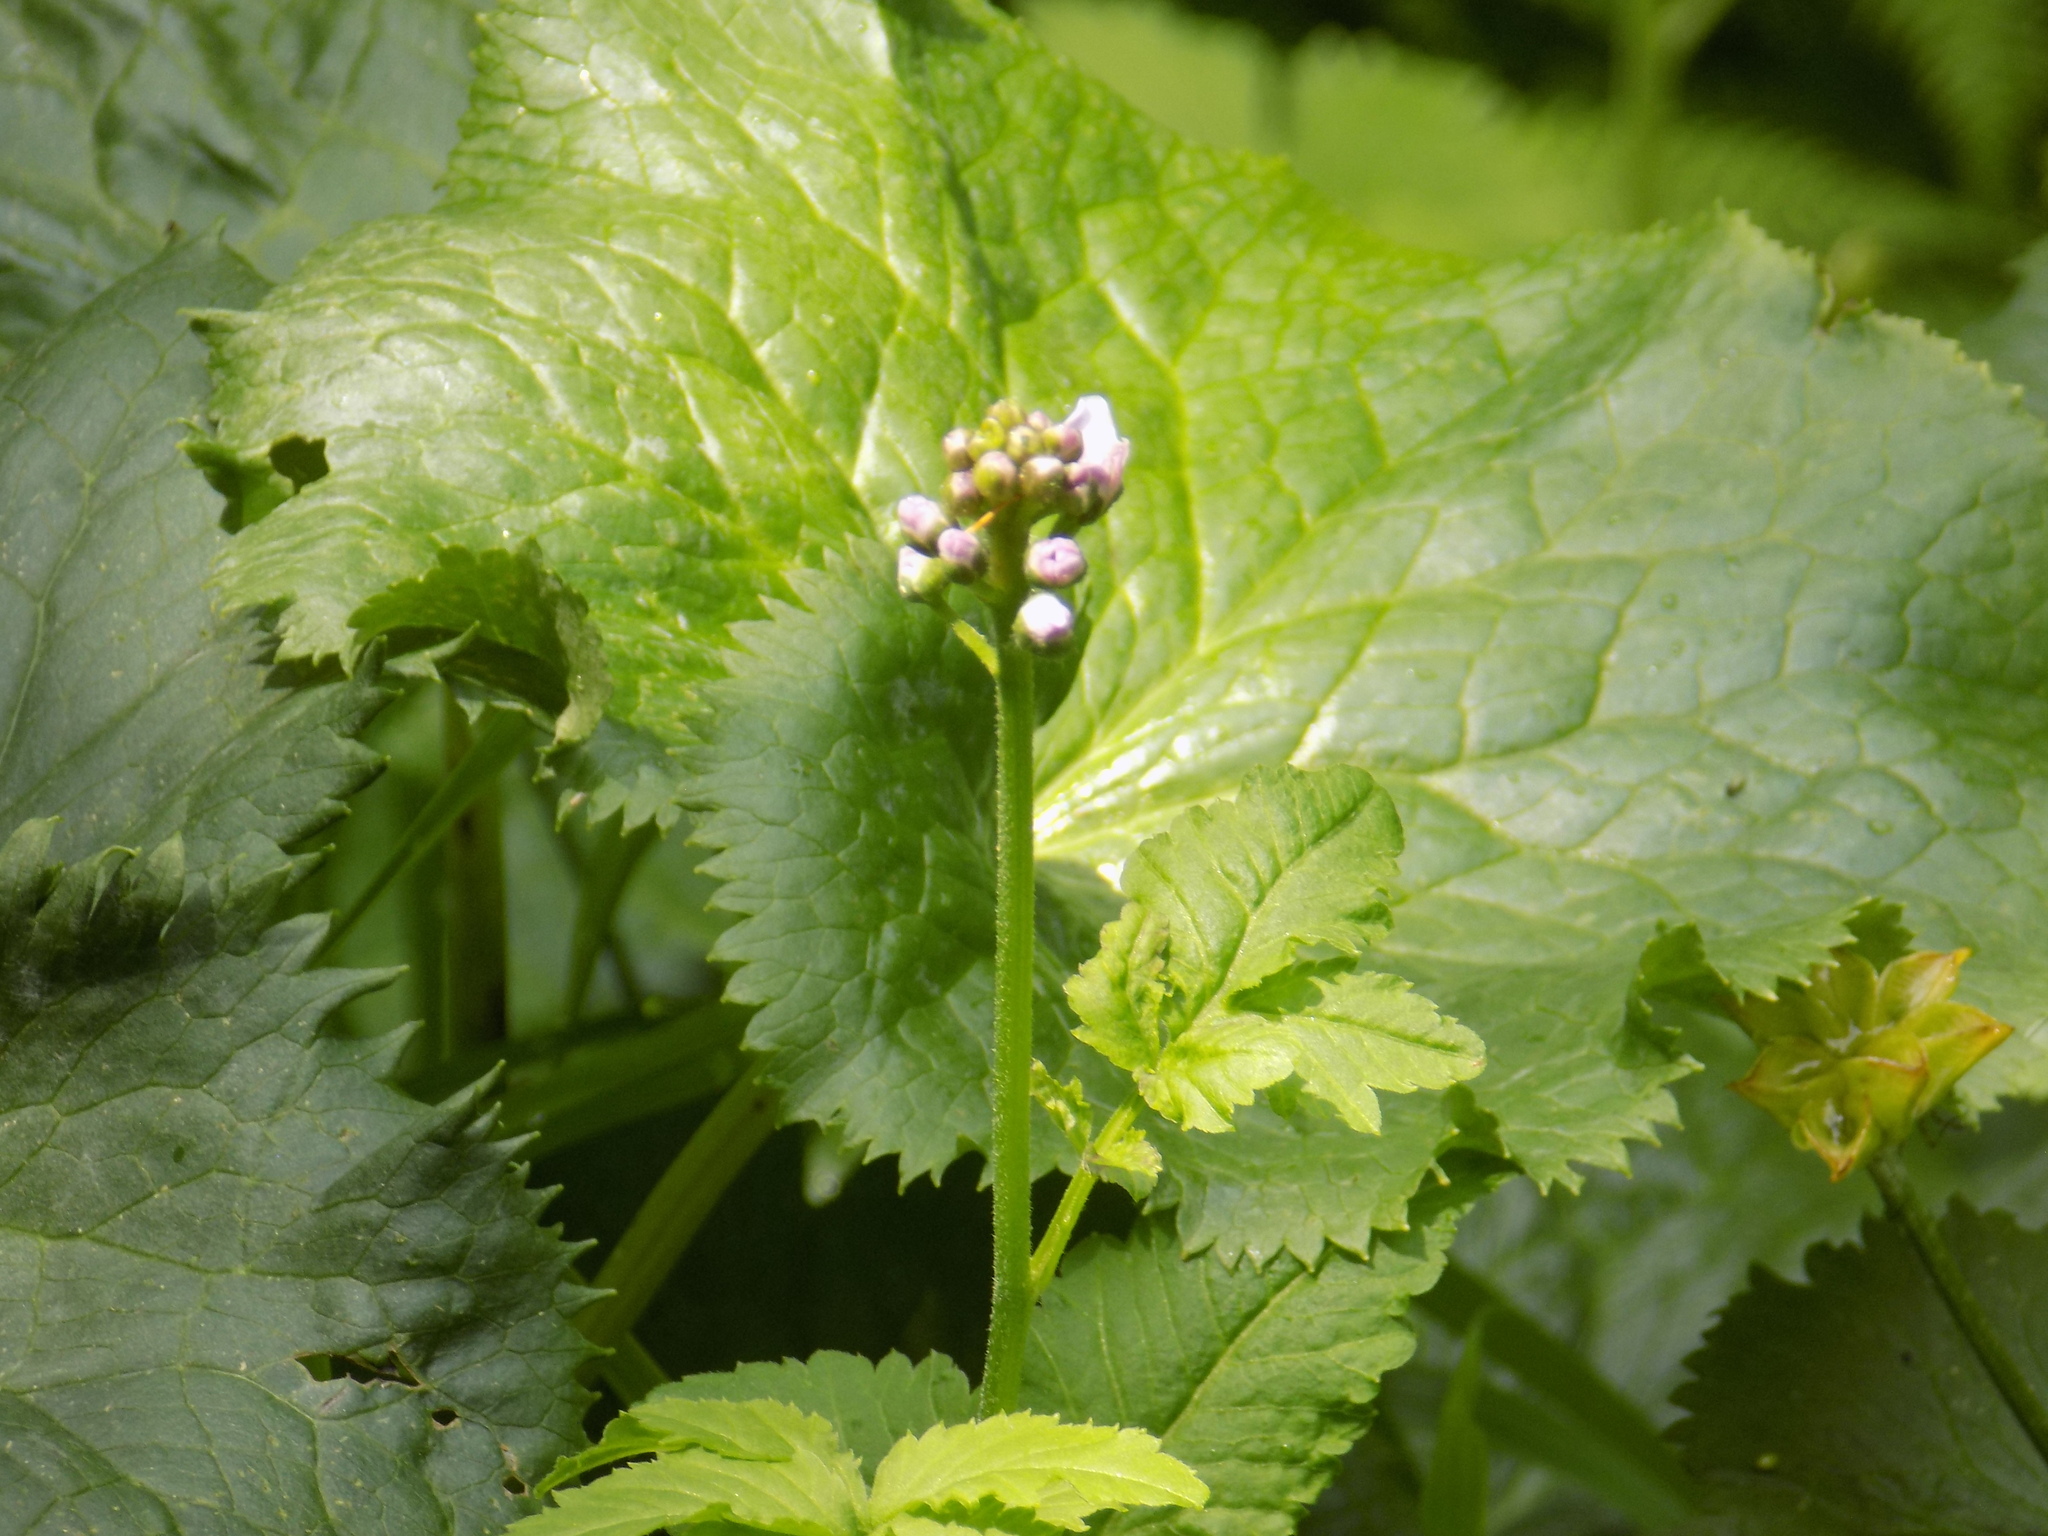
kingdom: Plantae
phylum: Tracheophyta
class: Magnoliopsida
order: Brassicales
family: Brassicaceae
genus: Cardamine
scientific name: Cardamine macrophylla
